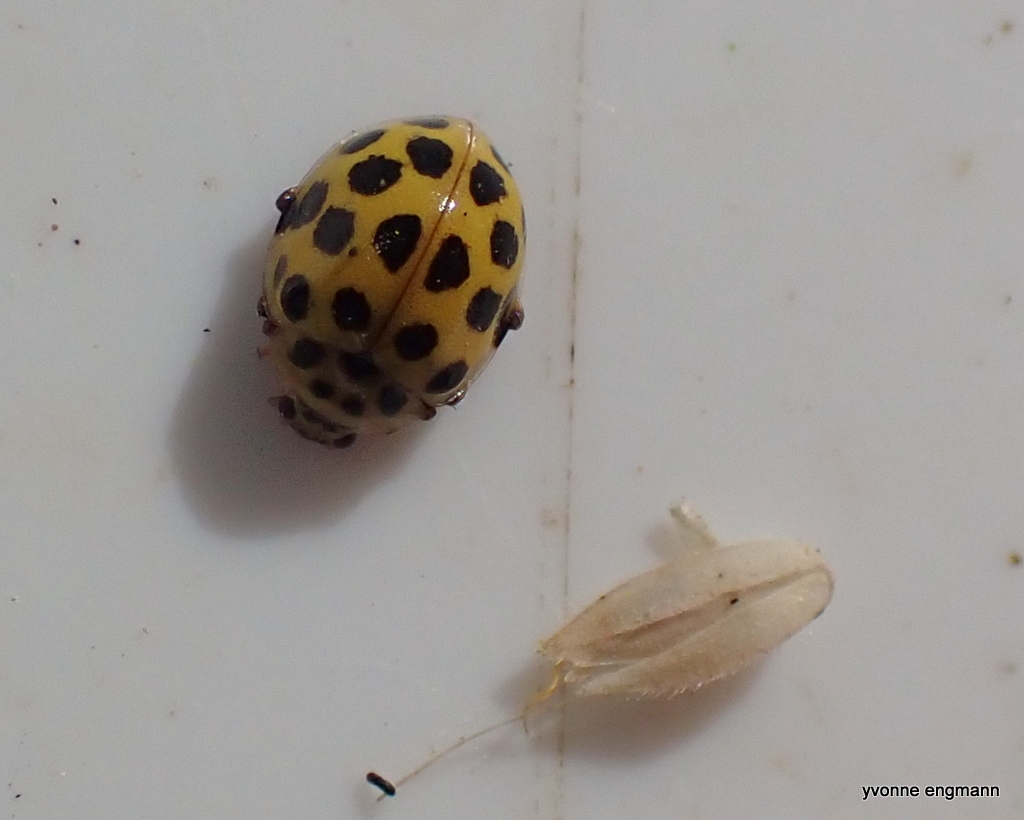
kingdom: Animalia
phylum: Arthropoda
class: Insecta
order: Coleoptera
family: Coccinellidae
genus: Psyllobora
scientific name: Psyllobora vigintiduopunctata
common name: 22-spot ladybird
